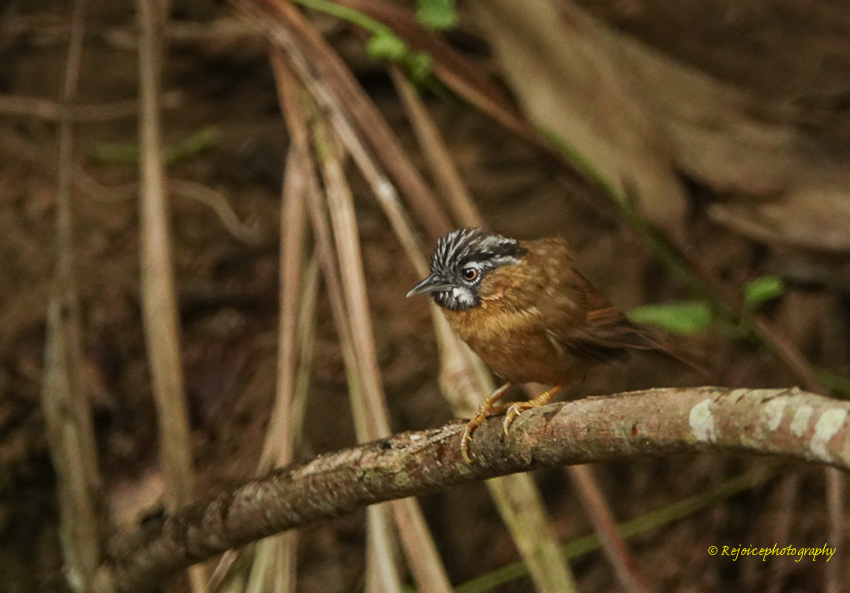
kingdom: Animalia
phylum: Chordata
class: Aves
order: Passeriformes
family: Timaliidae
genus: Stachyris
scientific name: Stachyris nigriceps
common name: Grey-throated babbler
